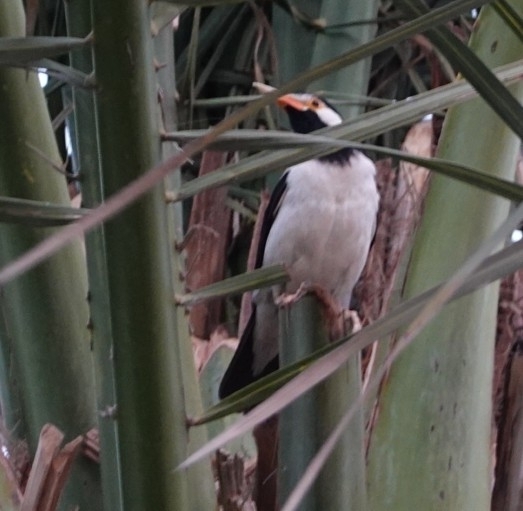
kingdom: Animalia
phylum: Chordata
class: Aves
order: Passeriformes
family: Sturnidae
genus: Gracupica
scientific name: Gracupica contra
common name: Pied myna
